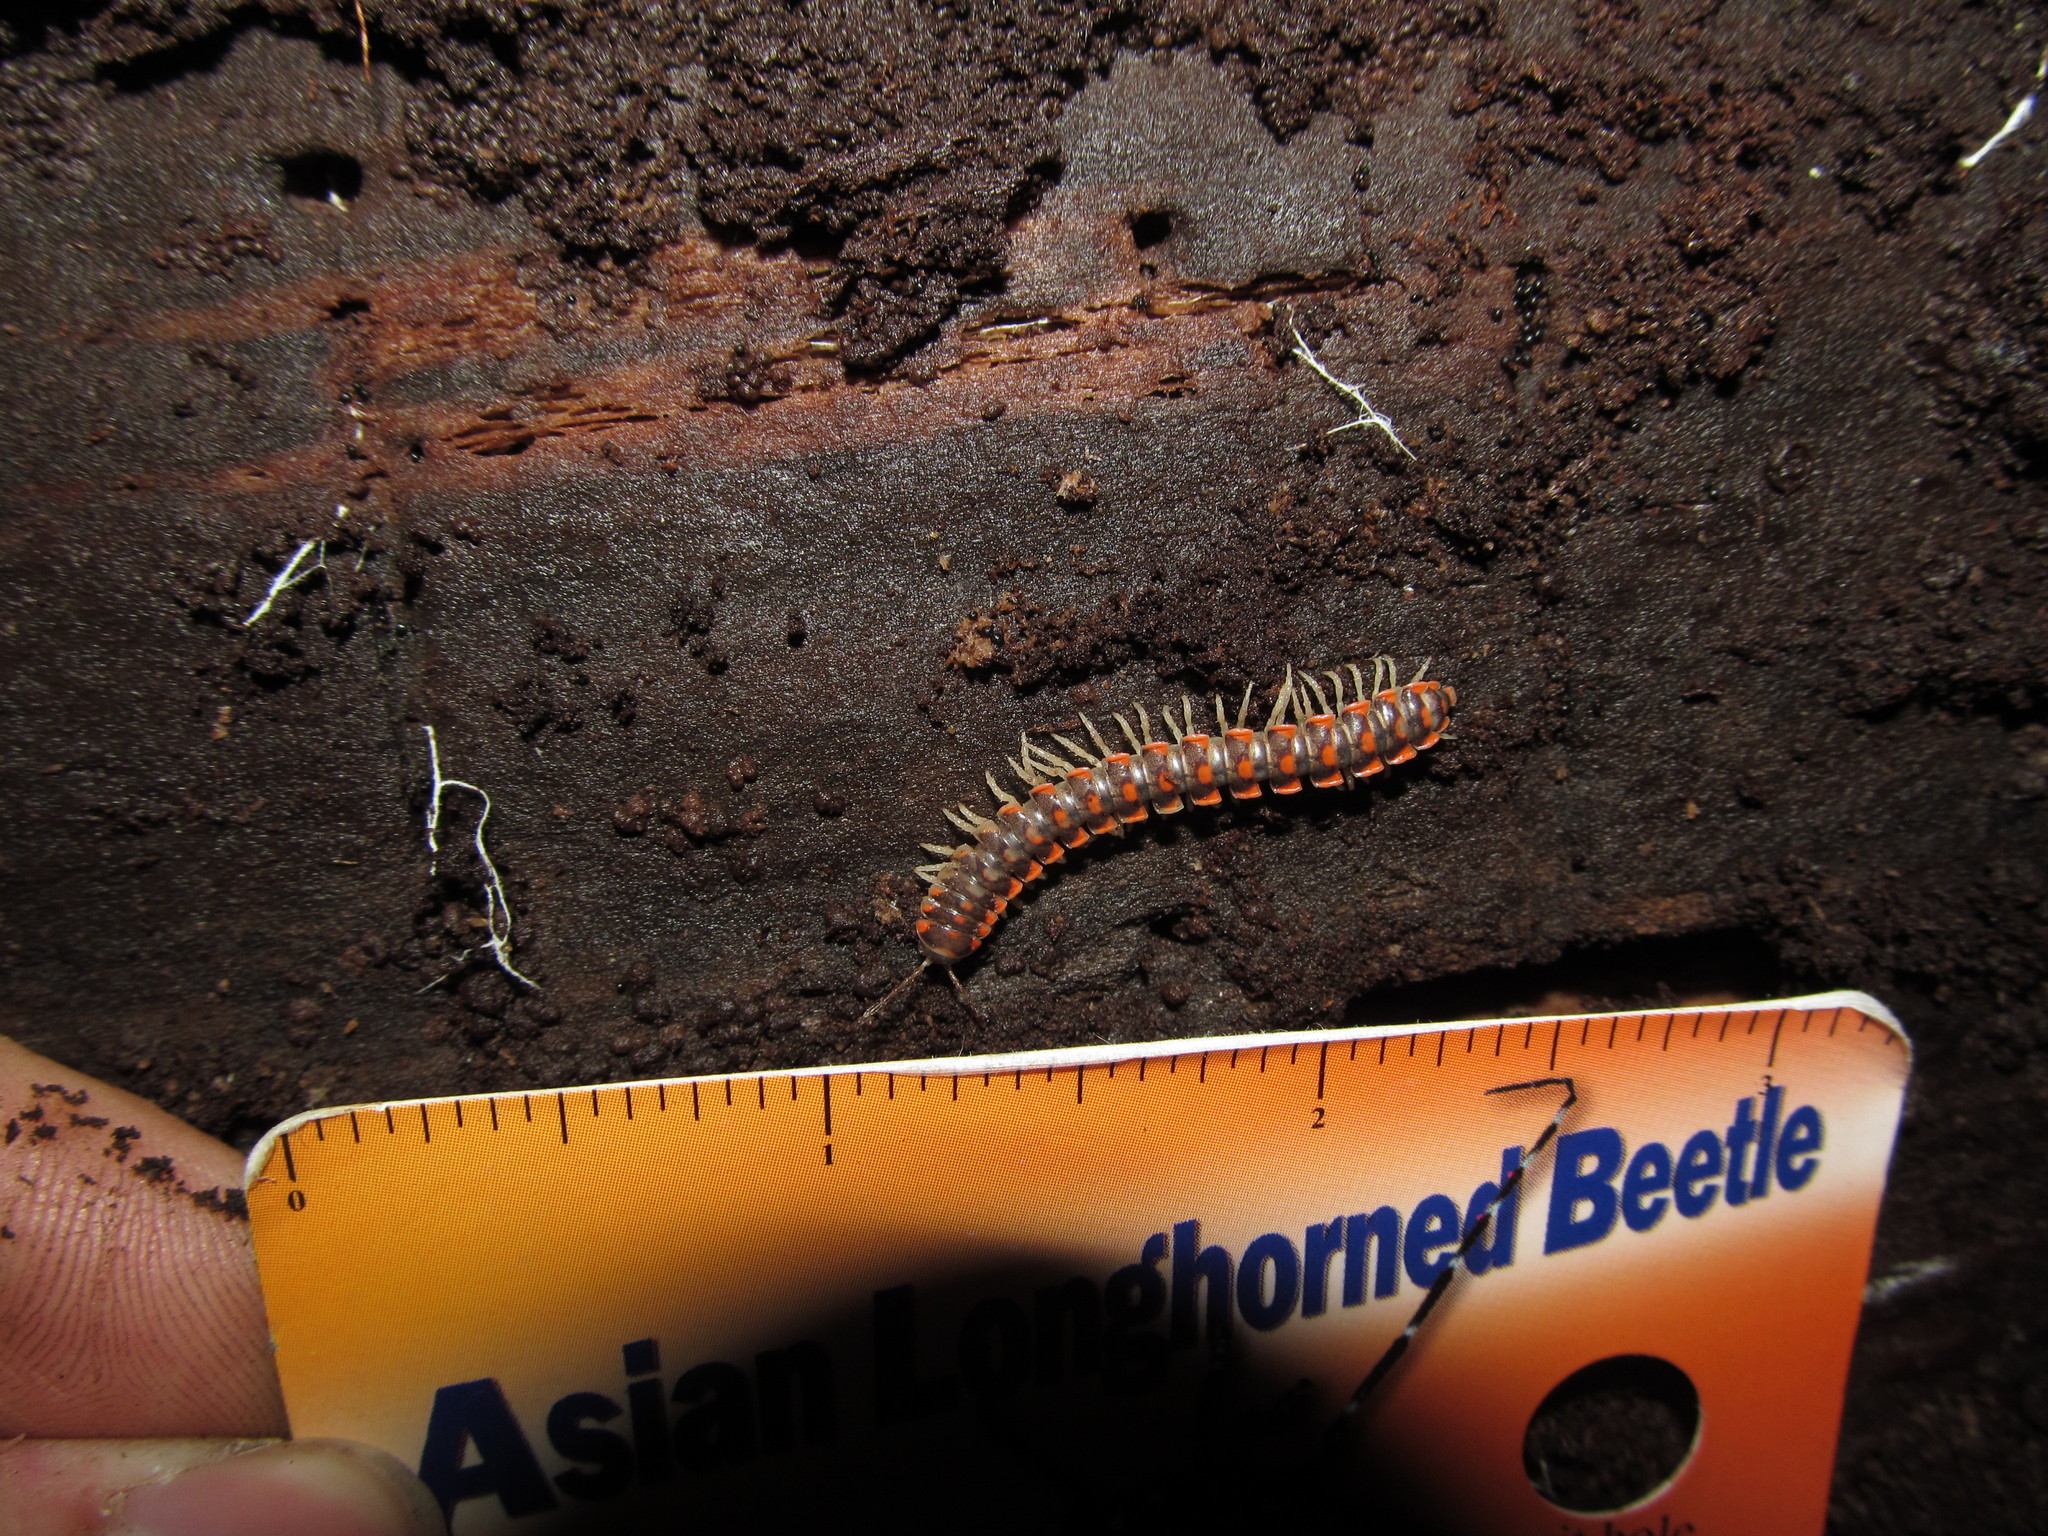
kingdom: Animalia
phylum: Arthropoda
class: Diplopoda
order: Polydesmida
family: Xystodesmidae
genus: Euryurus
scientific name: Euryurus leachii
